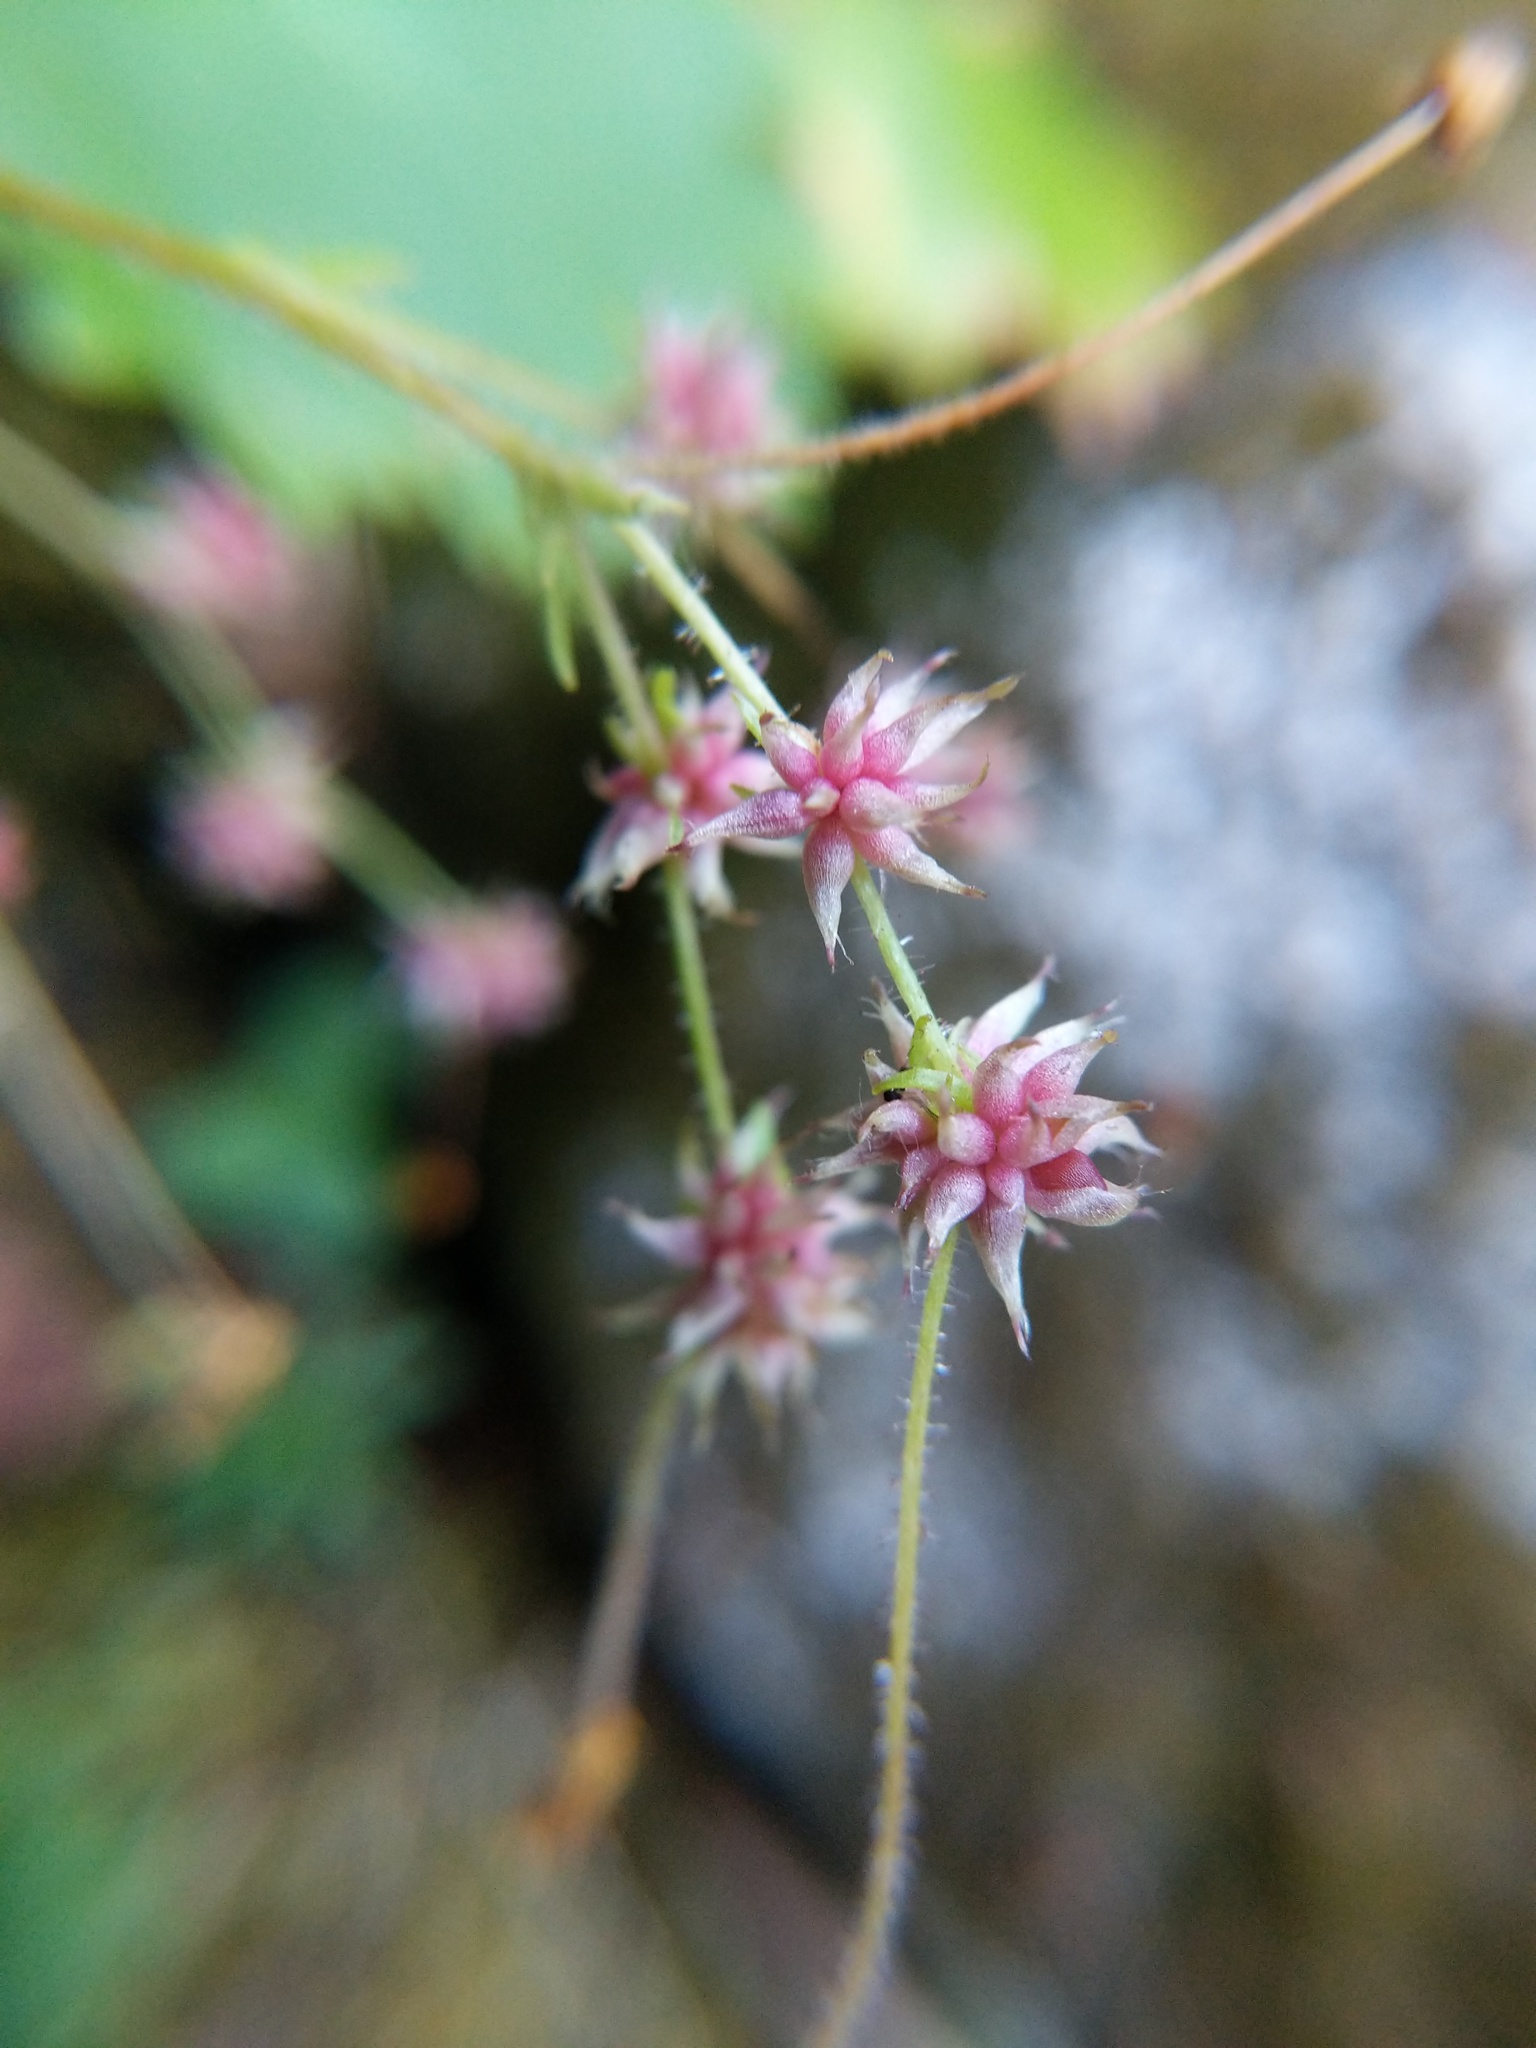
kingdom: Plantae
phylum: Tracheophyta
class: Magnoliopsida
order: Saxifragales
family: Saxifragaceae
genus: Micranthes
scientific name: Micranthes mertensiana
